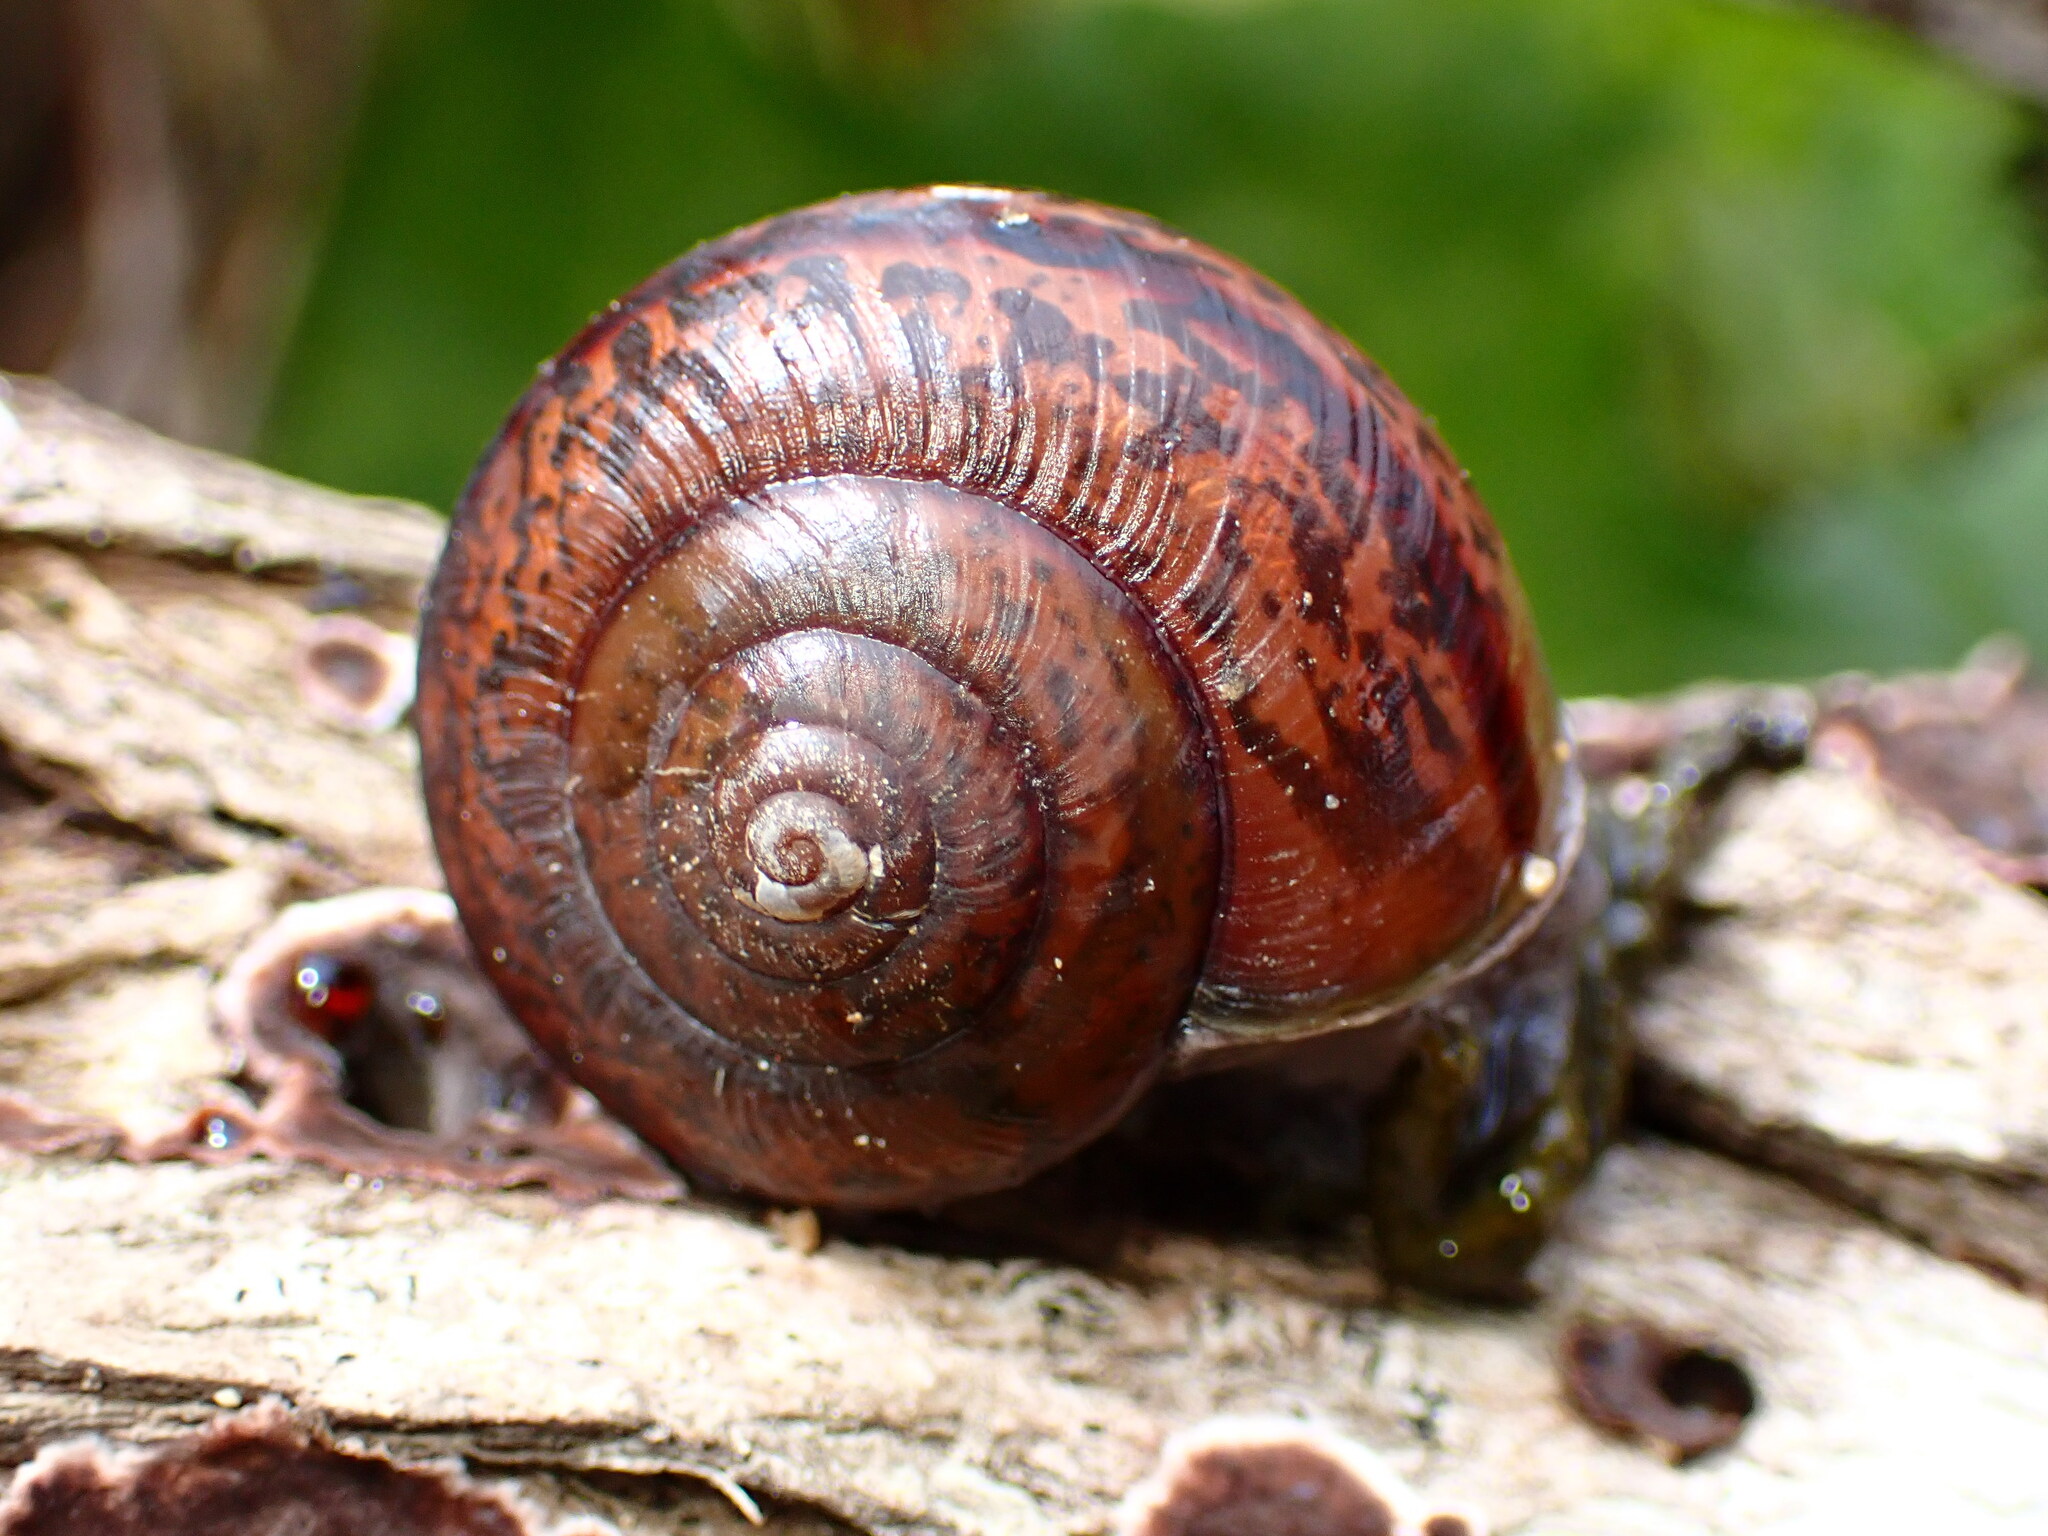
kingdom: Animalia
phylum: Mollusca
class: Gastropoda
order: Stylommatophora
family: Xanthonychidae
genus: Helminthoglypta
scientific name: Helminthoglypta phlyctaena
